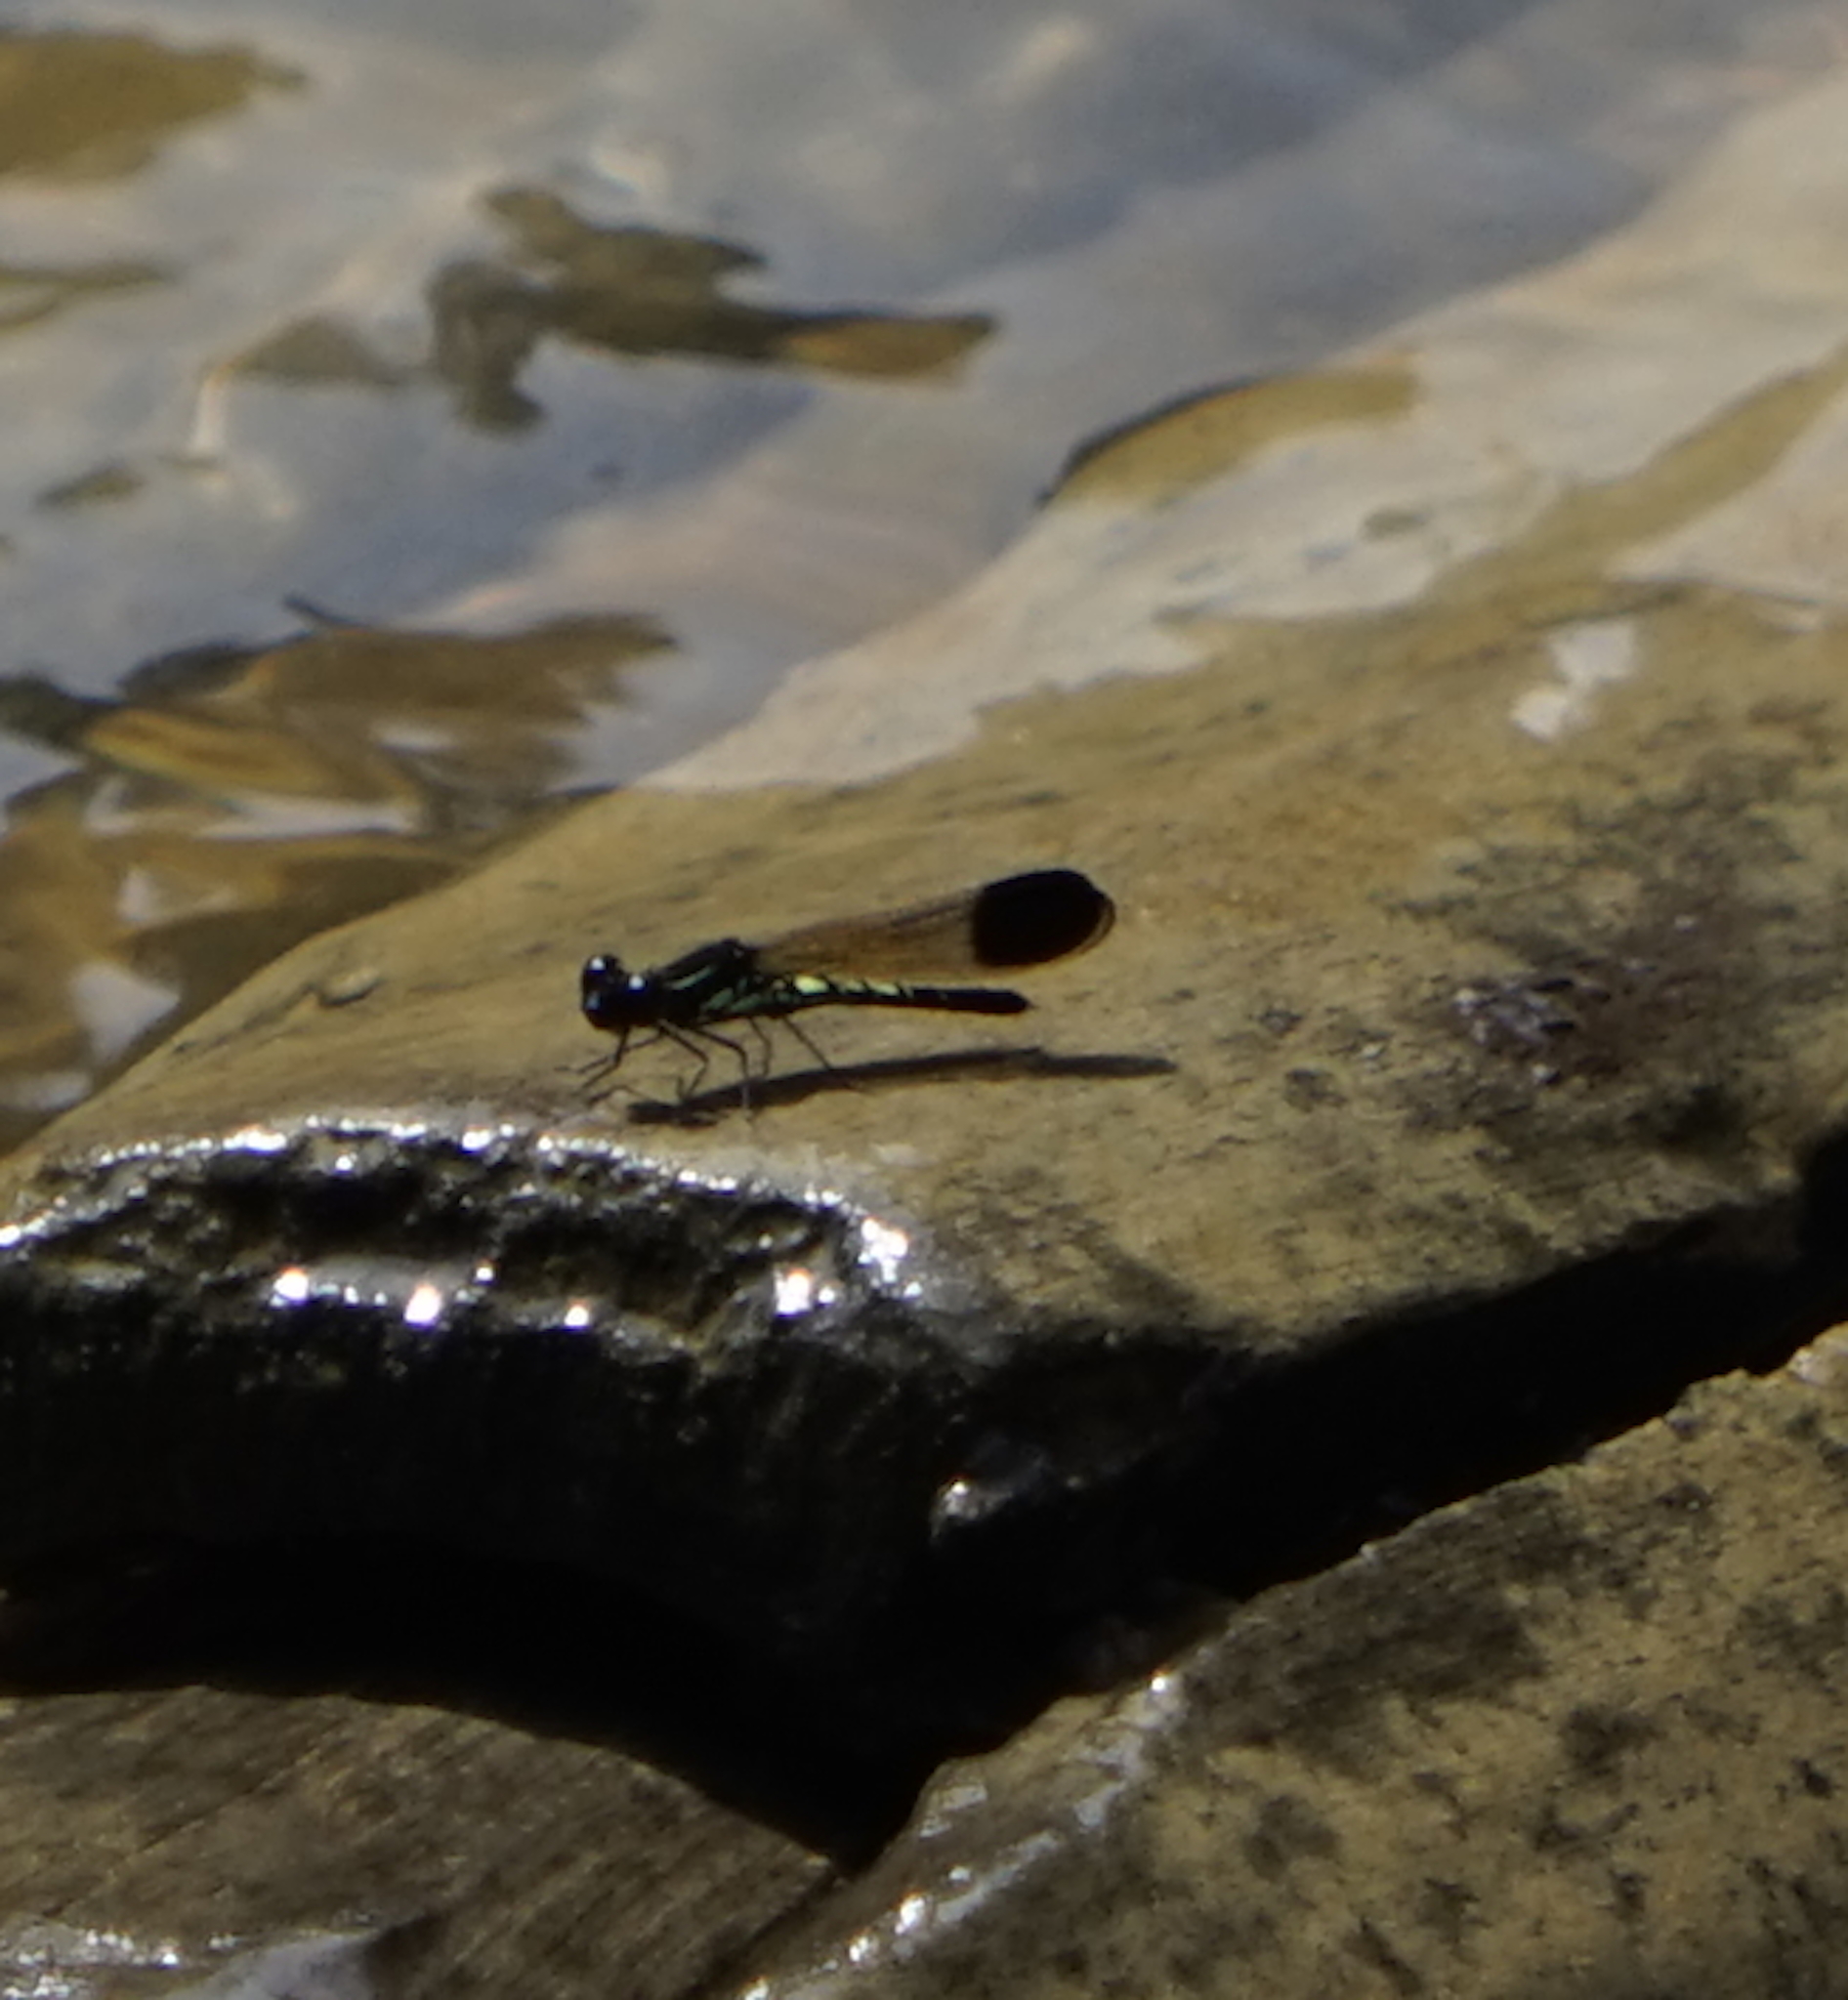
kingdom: Animalia
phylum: Arthropoda
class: Insecta
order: Odonata
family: Chlorocyphidae
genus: Libellago
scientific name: Libellago semiopaca
